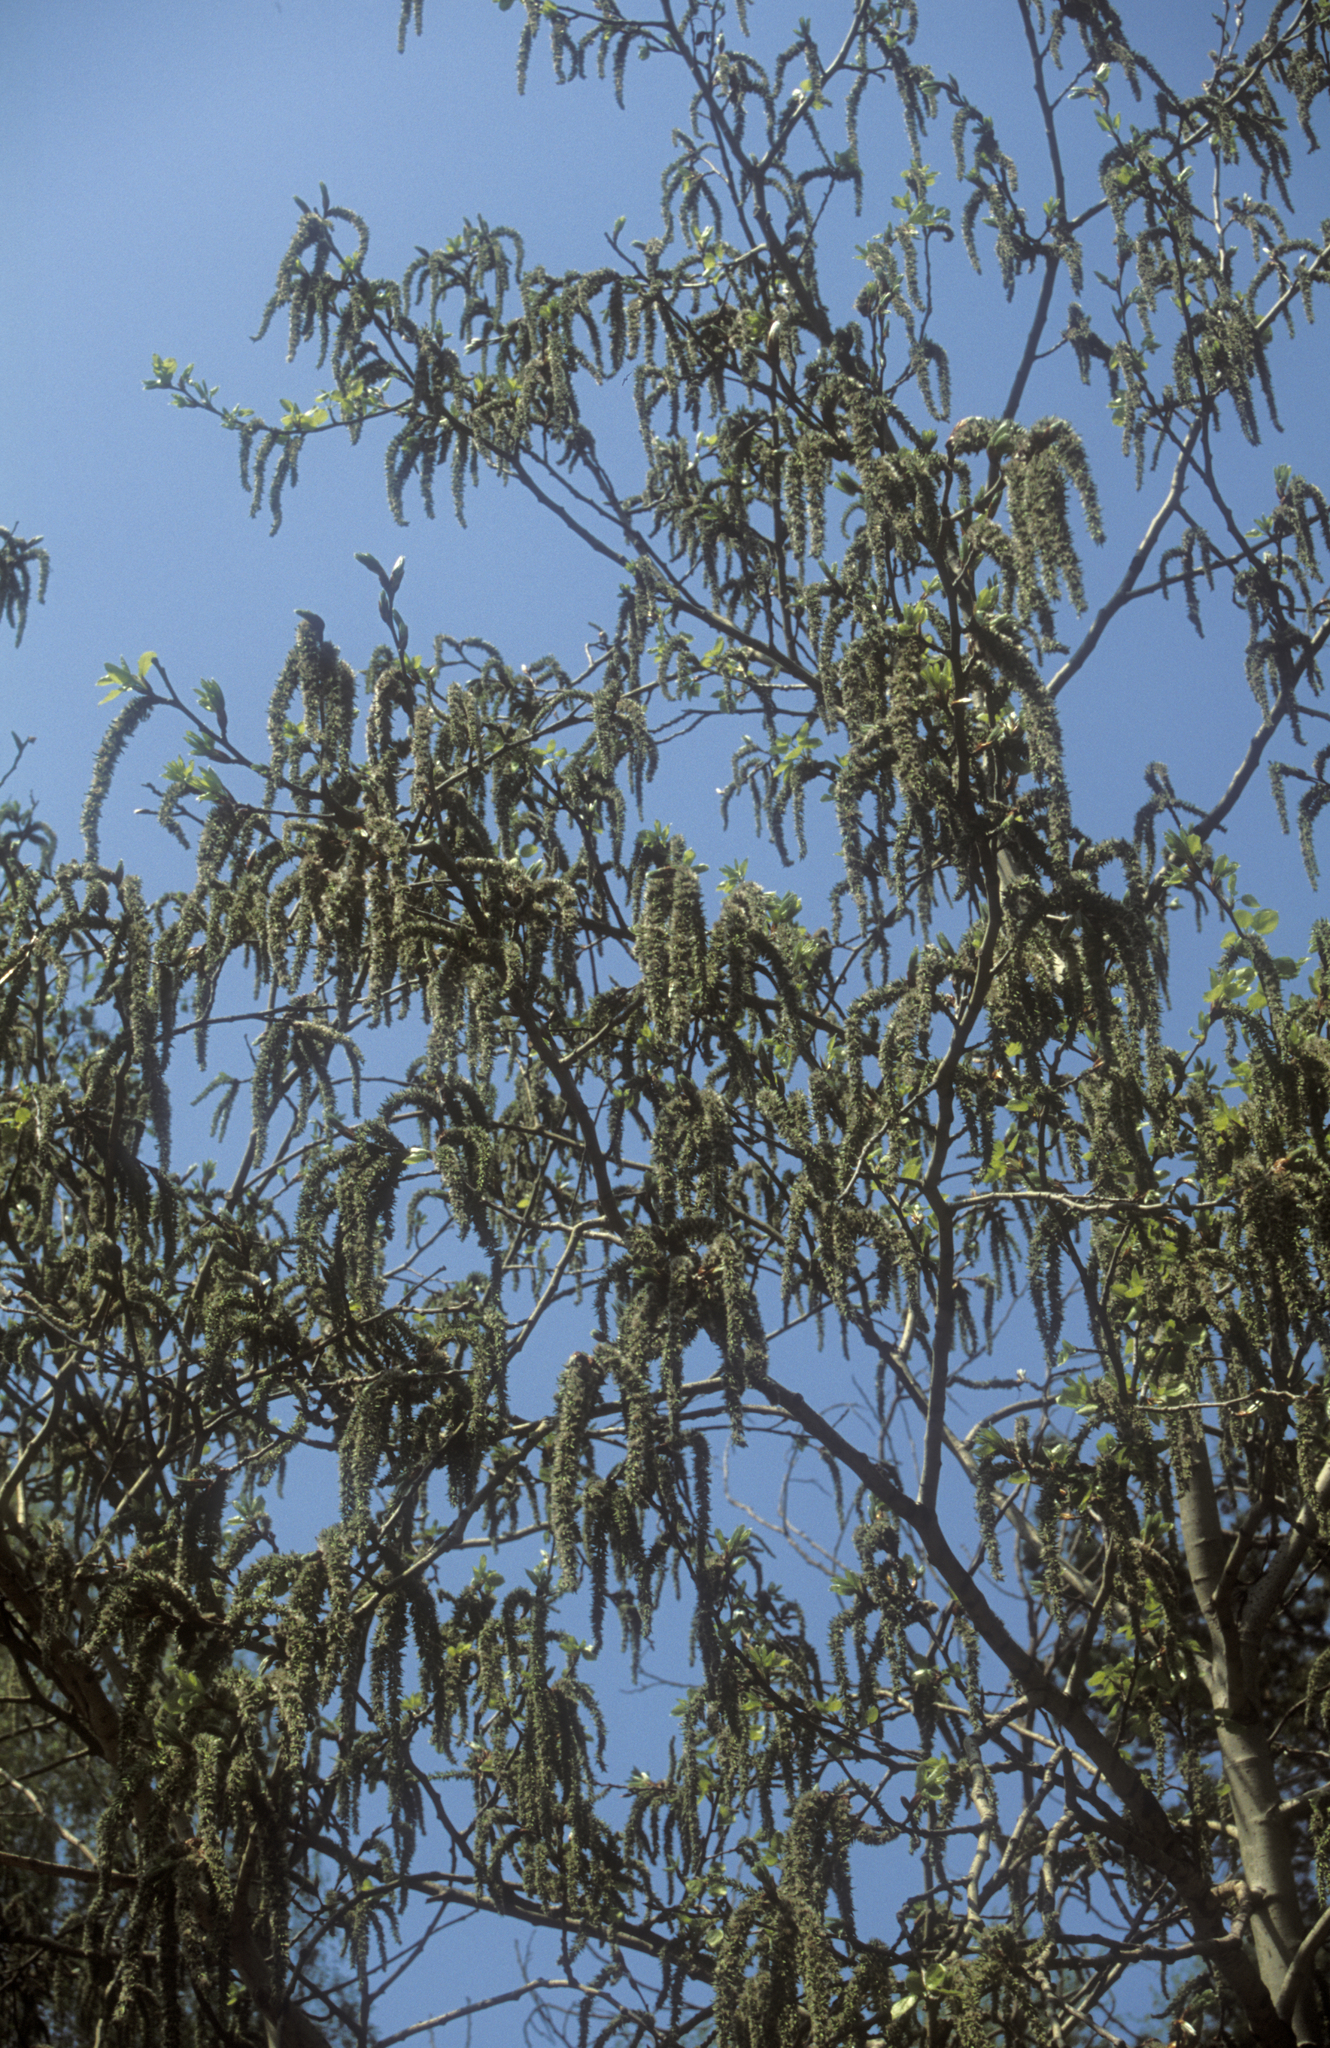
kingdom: Plantae
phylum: Tracheophyta
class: Magnoliopsida
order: Malpighiales
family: Salicaceae
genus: Populus
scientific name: Populus tremula
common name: European aspen
